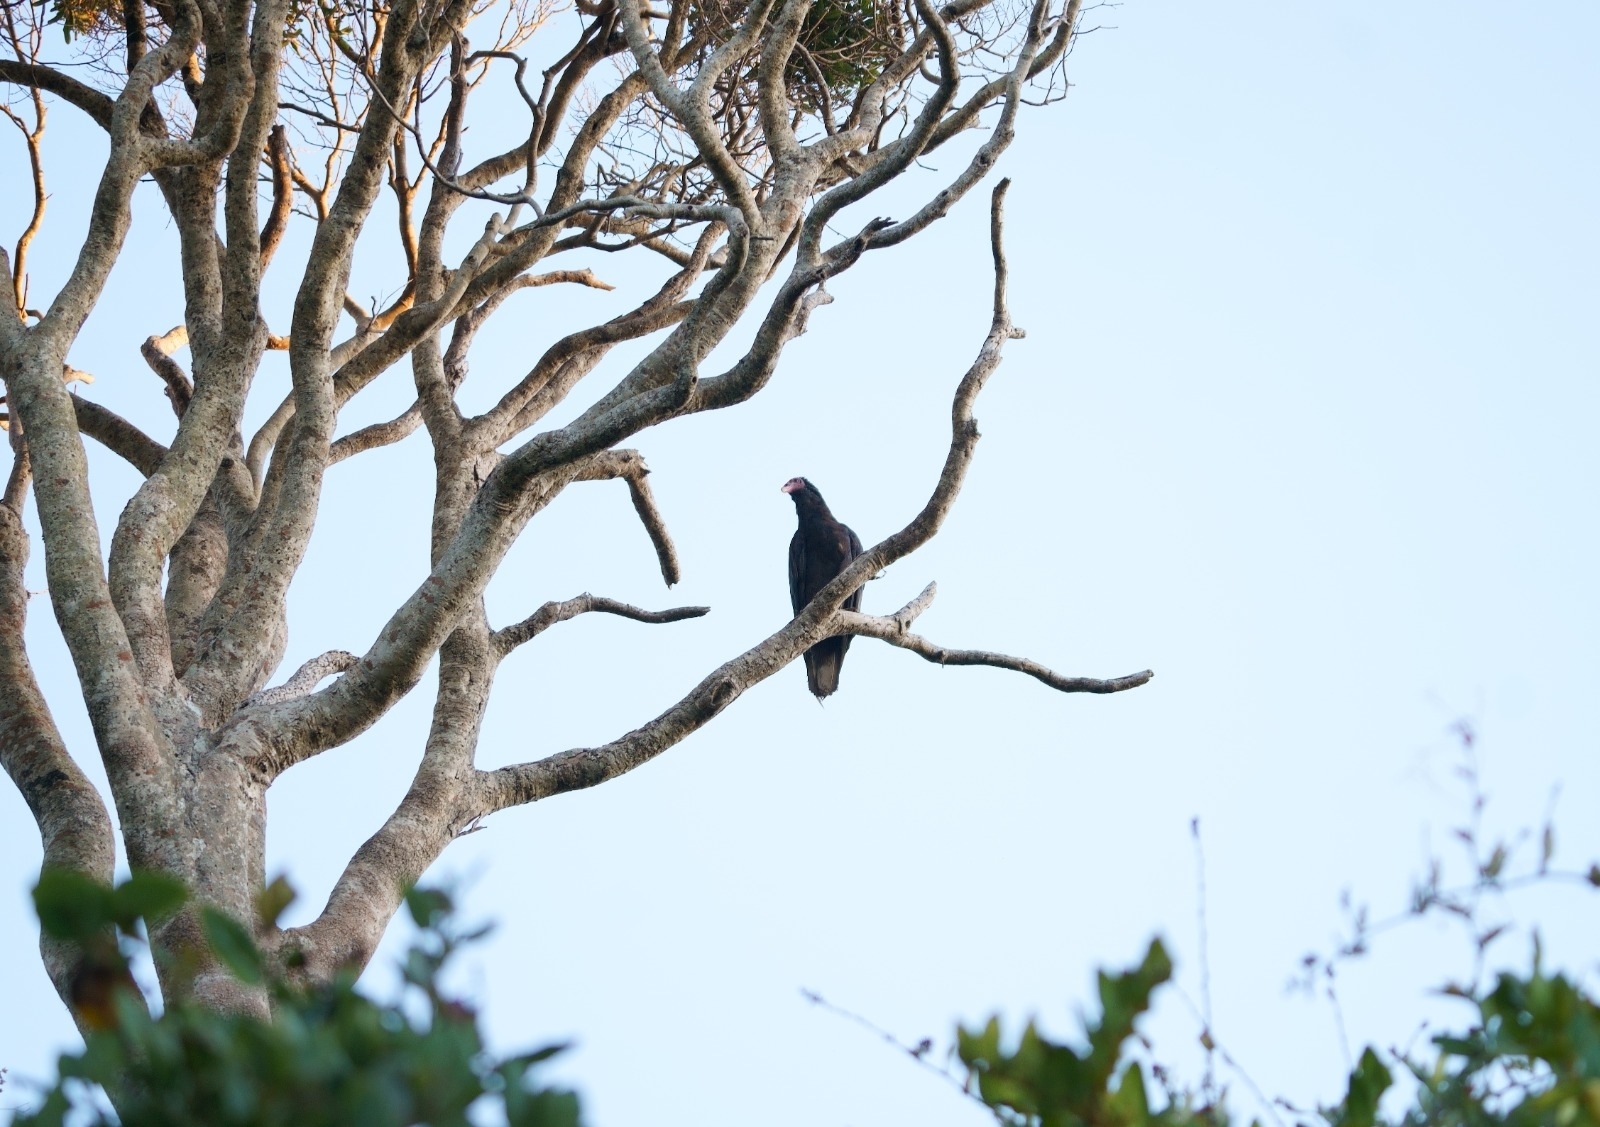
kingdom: Animalia
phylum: Chordata
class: Aves
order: Accipitriformes
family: Cathartidae
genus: Cathartes
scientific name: Cathartes aura
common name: Turkey vulture
